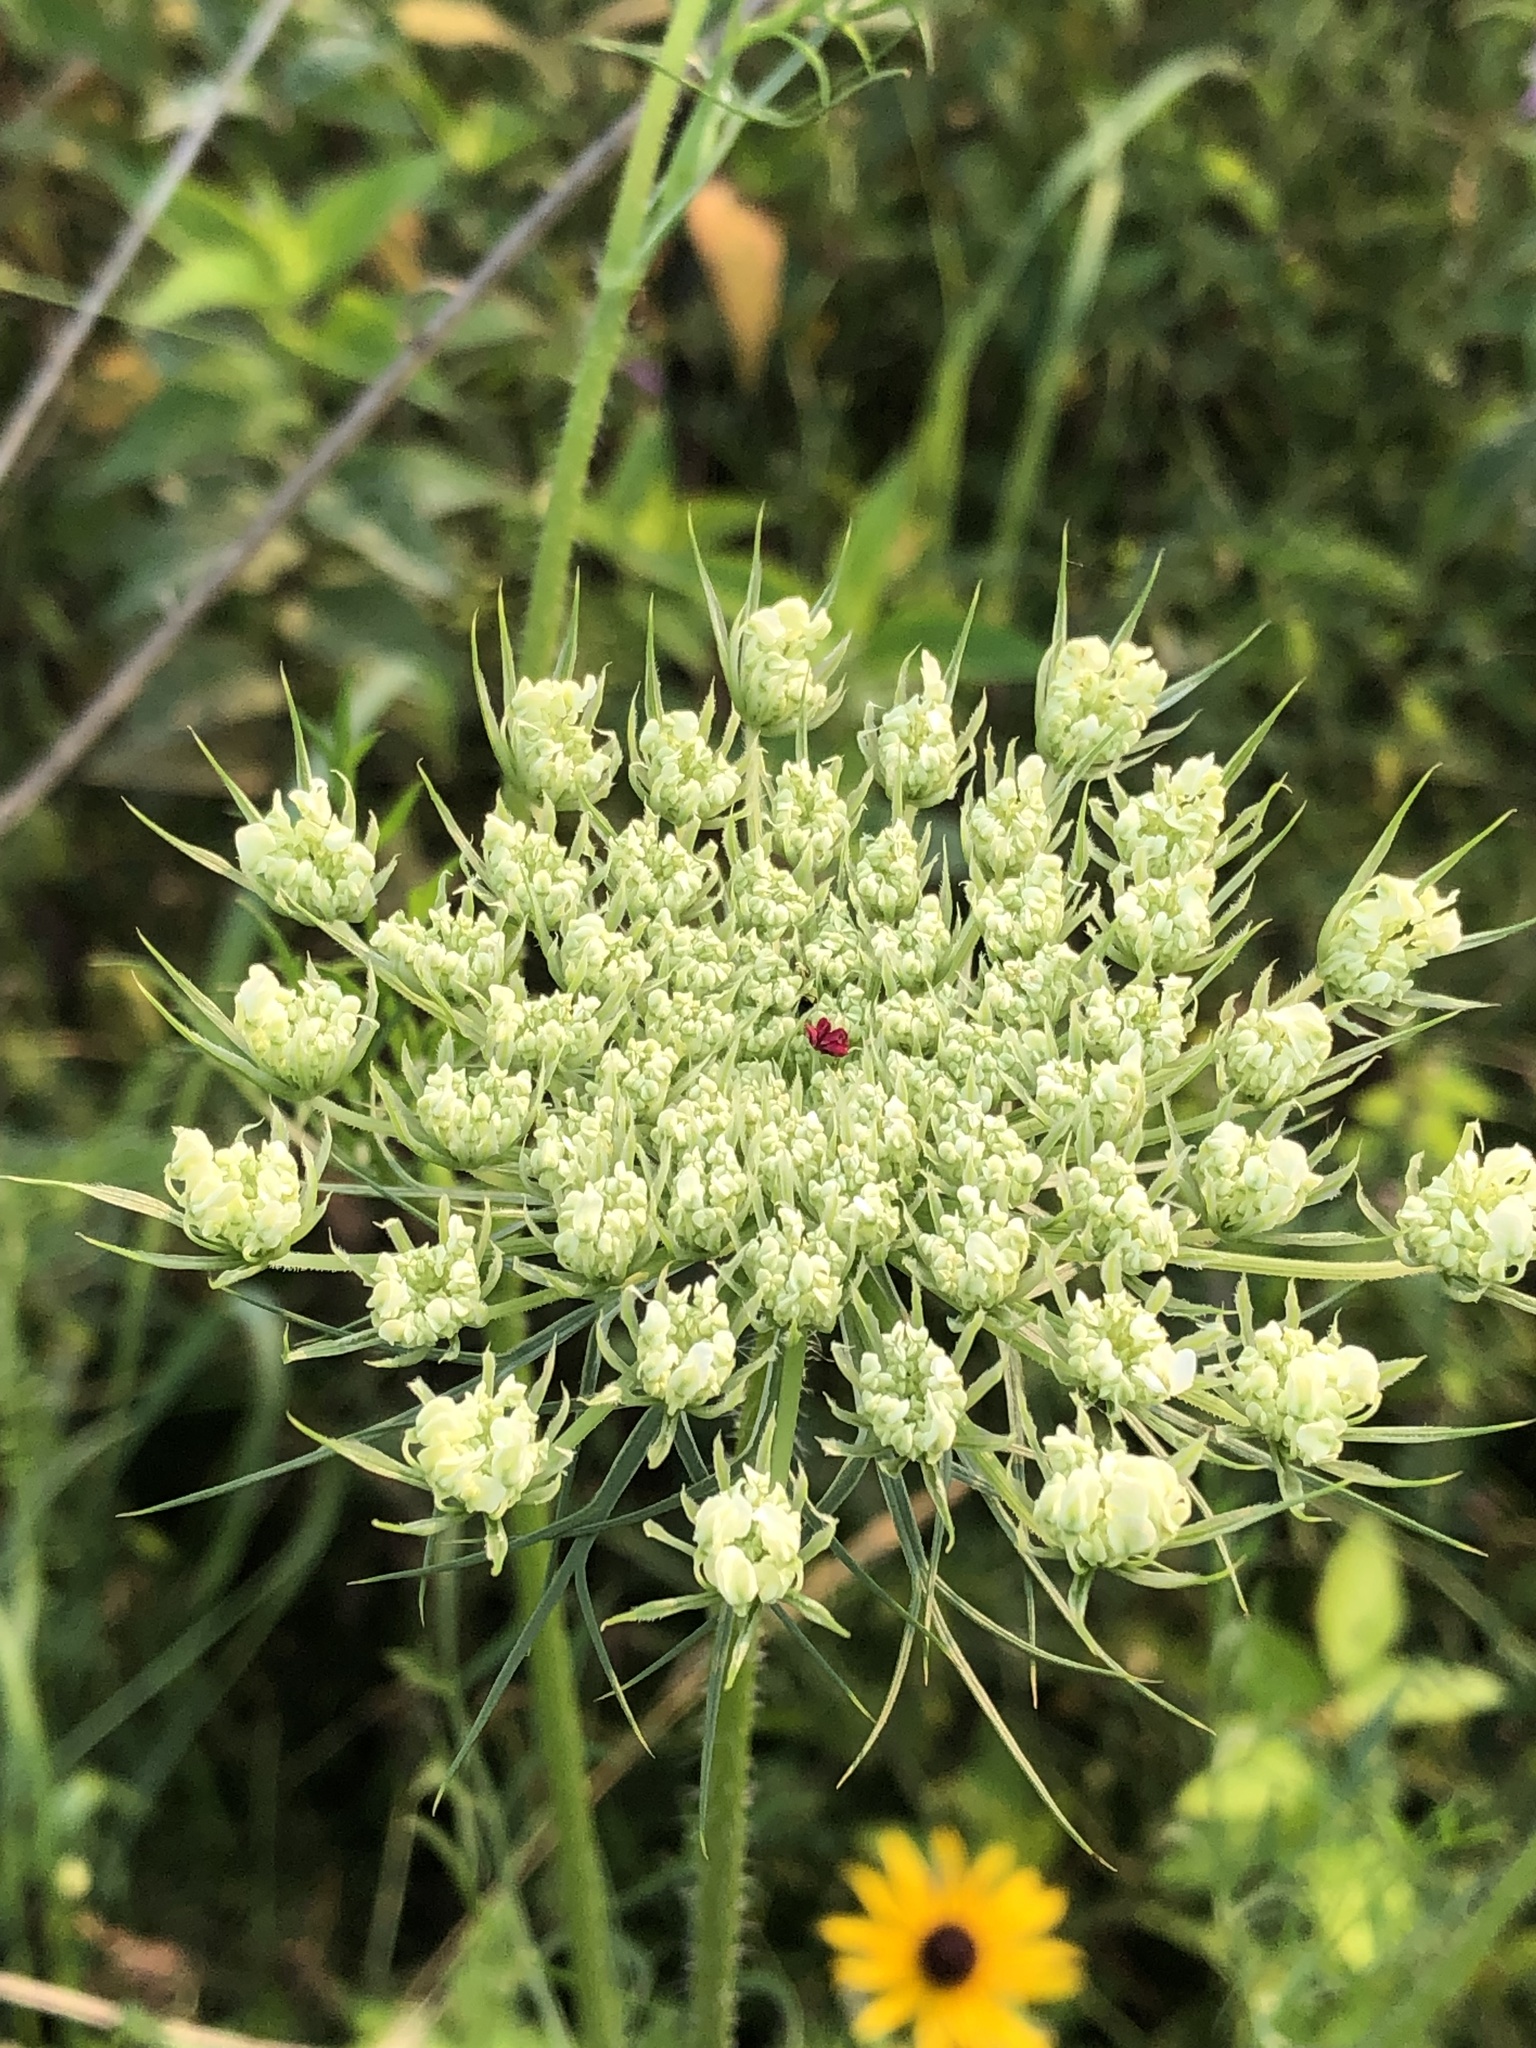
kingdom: Plantae
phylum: Tracheophyta
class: Magnoliopsida
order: Apiales
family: Apiaceae
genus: Daucus
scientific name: Daucus carota
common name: Wild carrot
